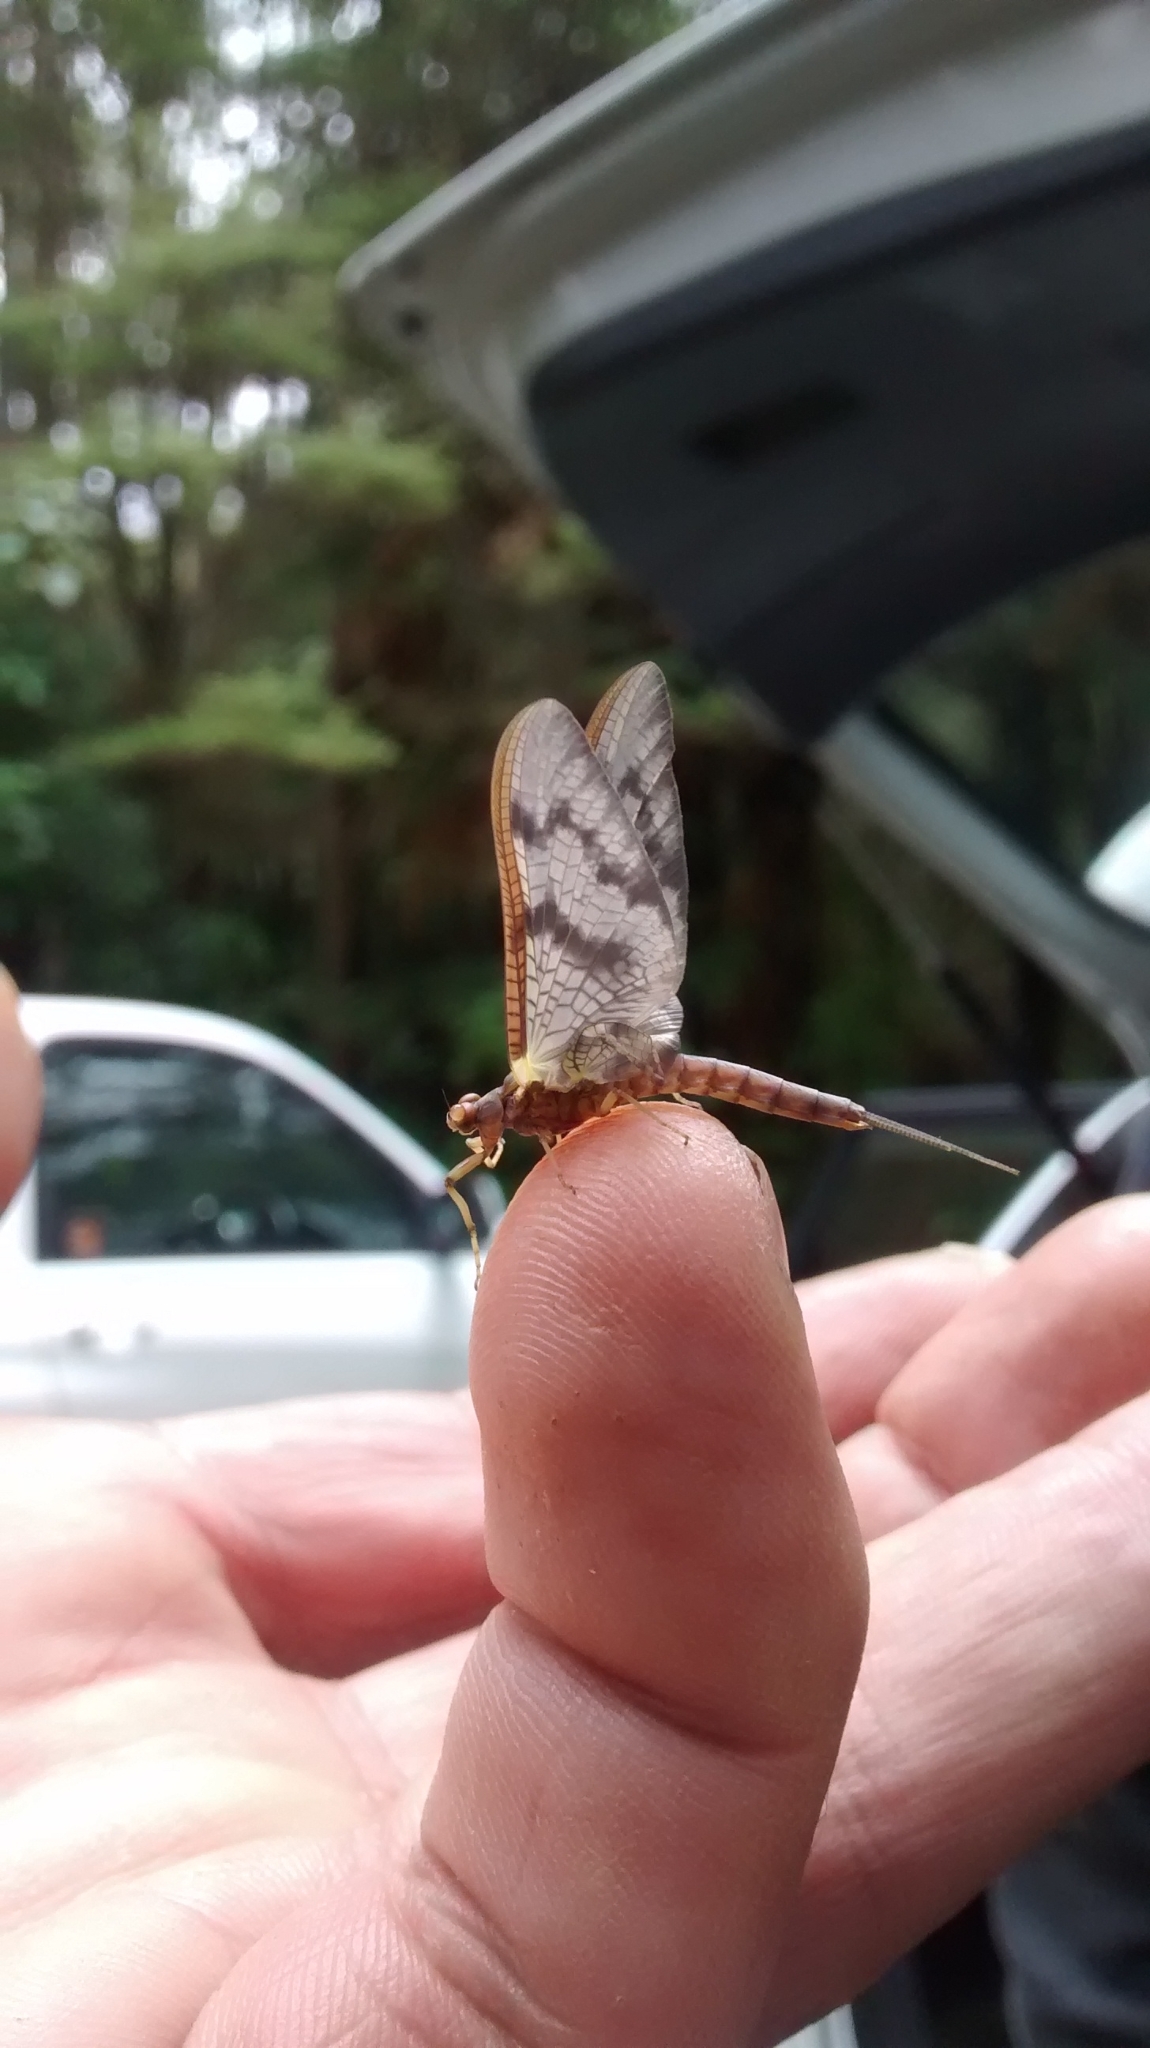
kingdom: Animalia
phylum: Arthropoda
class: Insecta
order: Ephemeroptera
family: Ichthybotidae
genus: Ichthybotus
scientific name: Ichthybotus hudsoni
